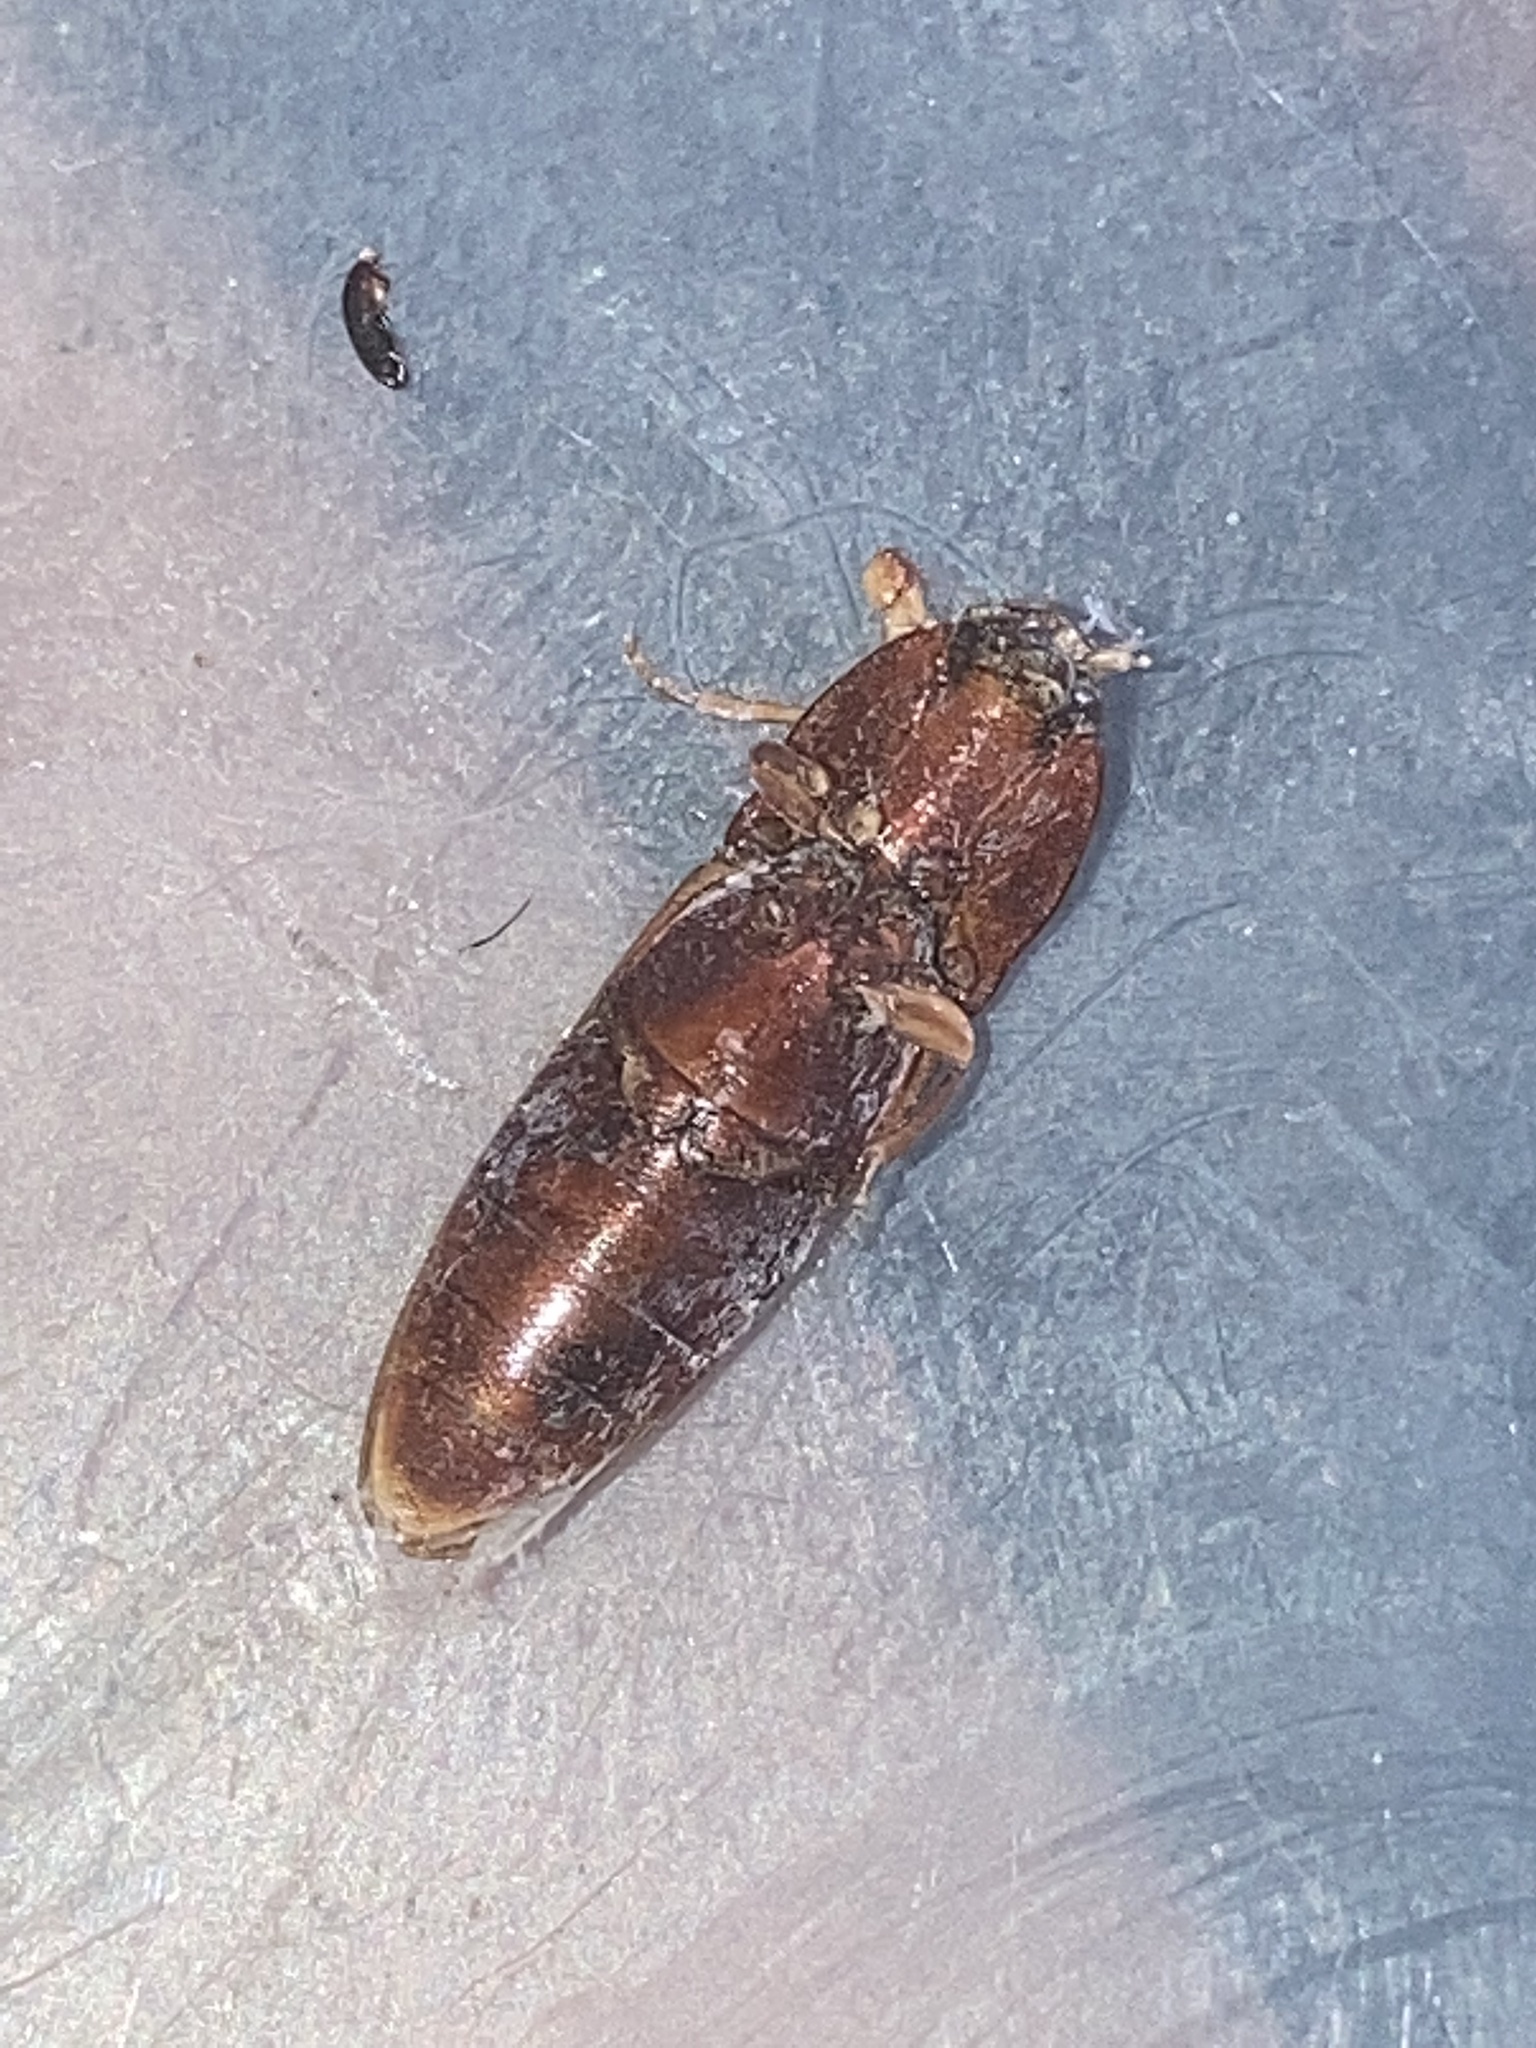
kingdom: Animalia
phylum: Arthropoda
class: Insecta
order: Coleoptera
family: Elateridae
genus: Melanotus
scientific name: Melanotus
